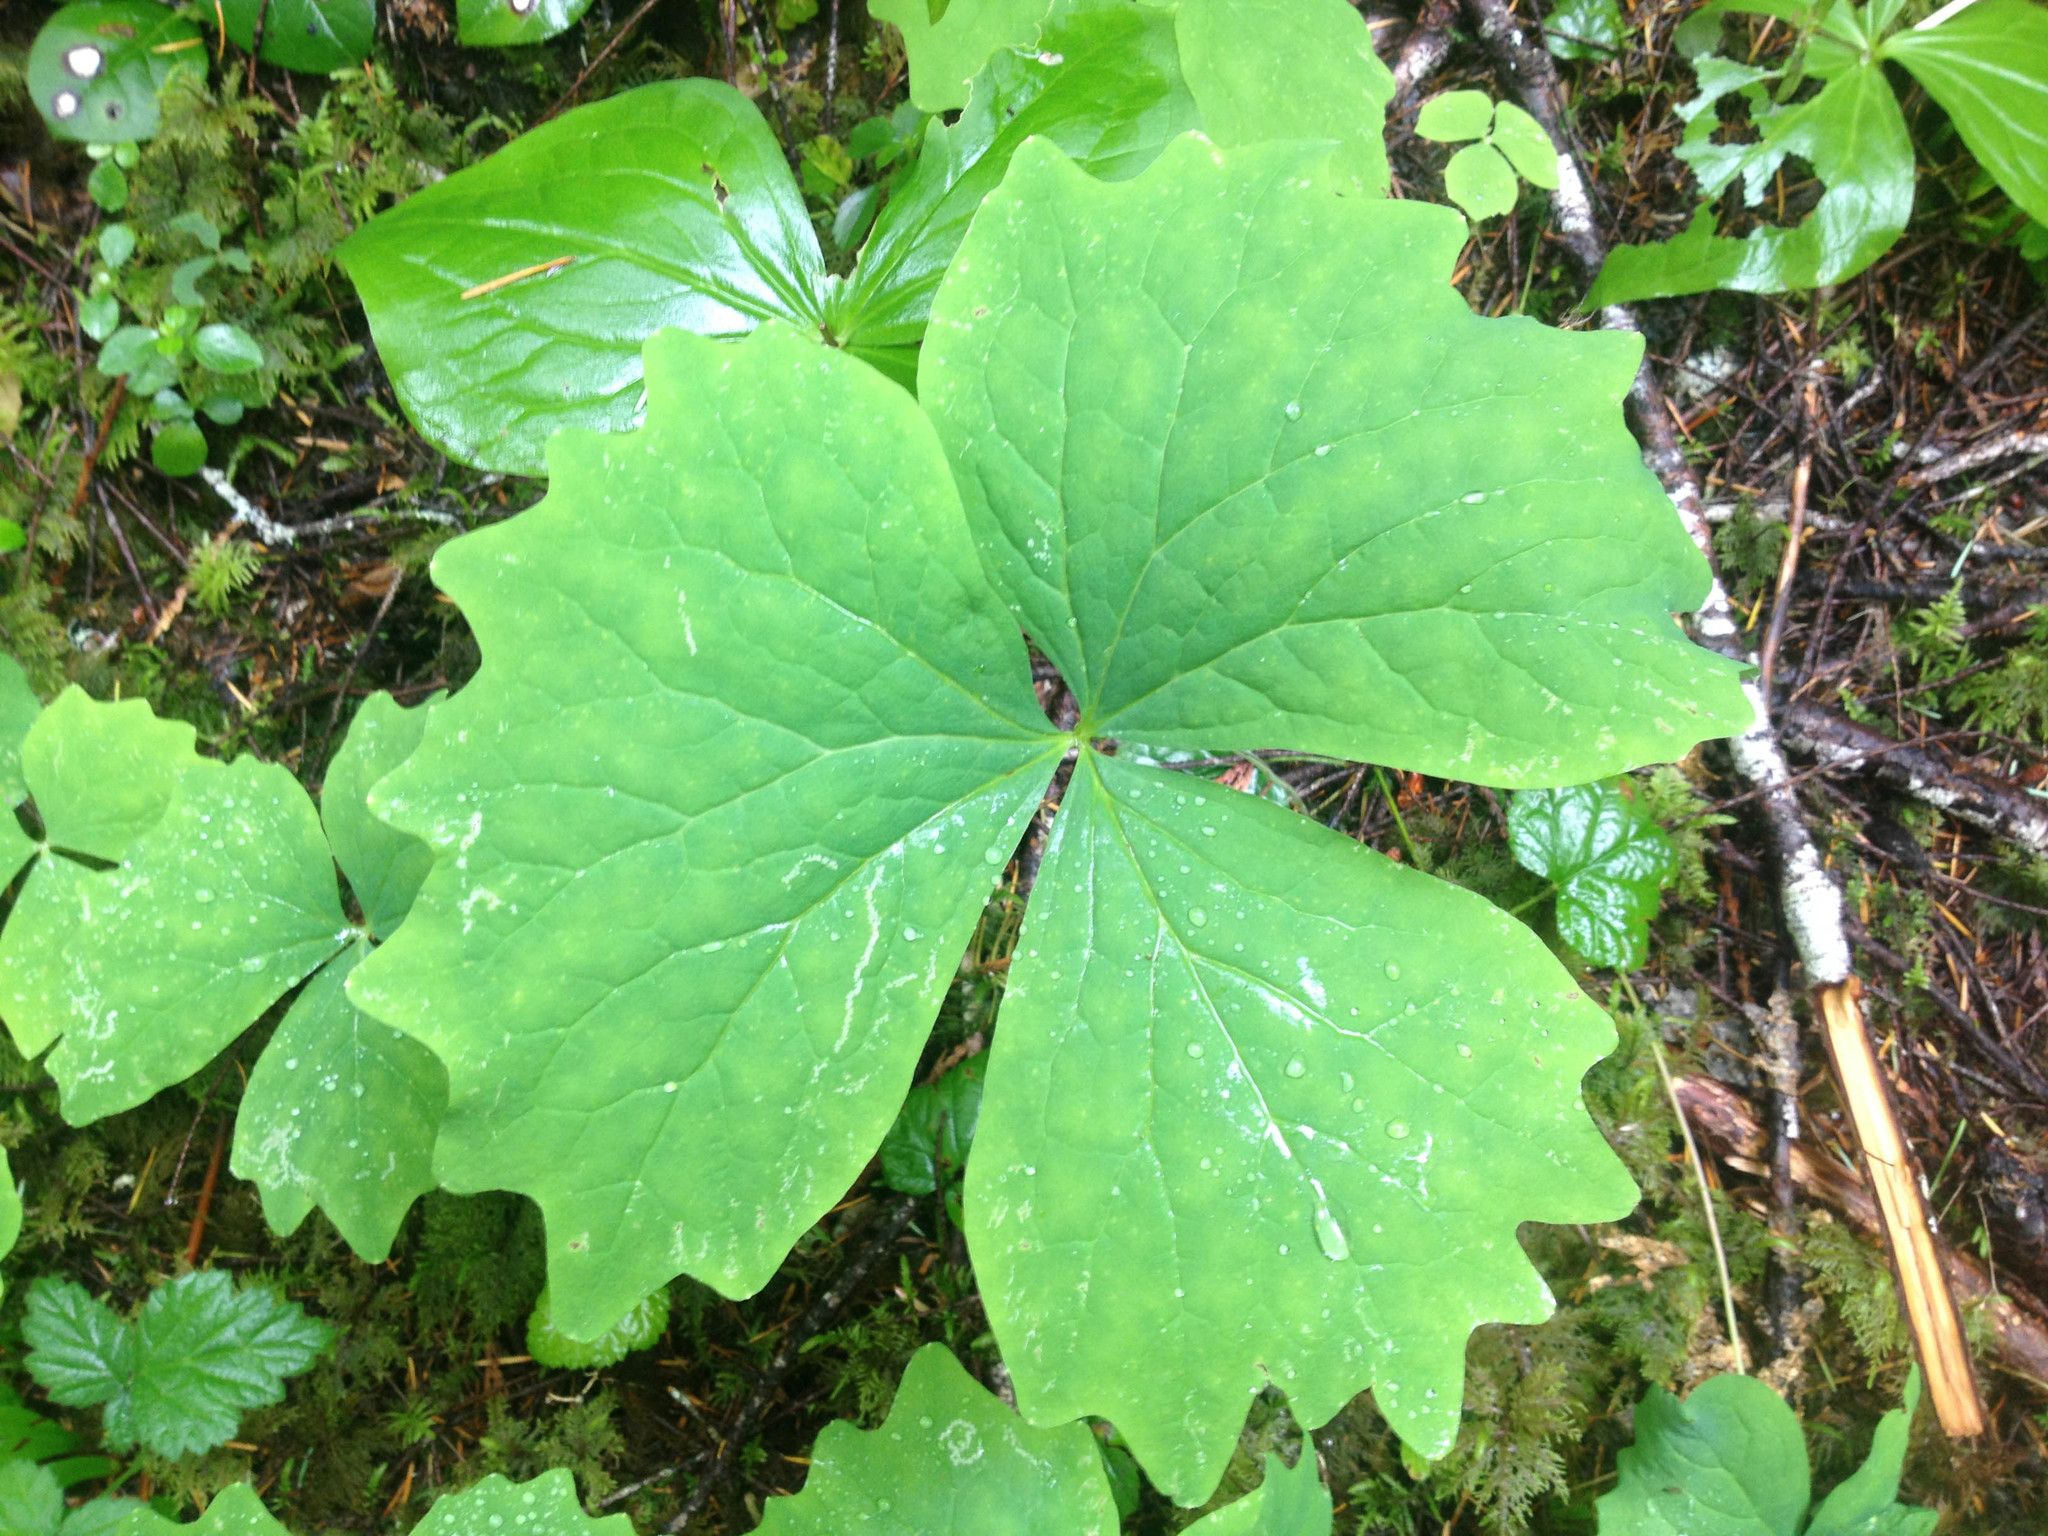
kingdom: Plantae
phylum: Tracheophyta
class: Magnoliopsida
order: Ranunculales
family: Berberidaceae
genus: Achlys
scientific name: Achlys triphylla
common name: Vanilla-leaf
